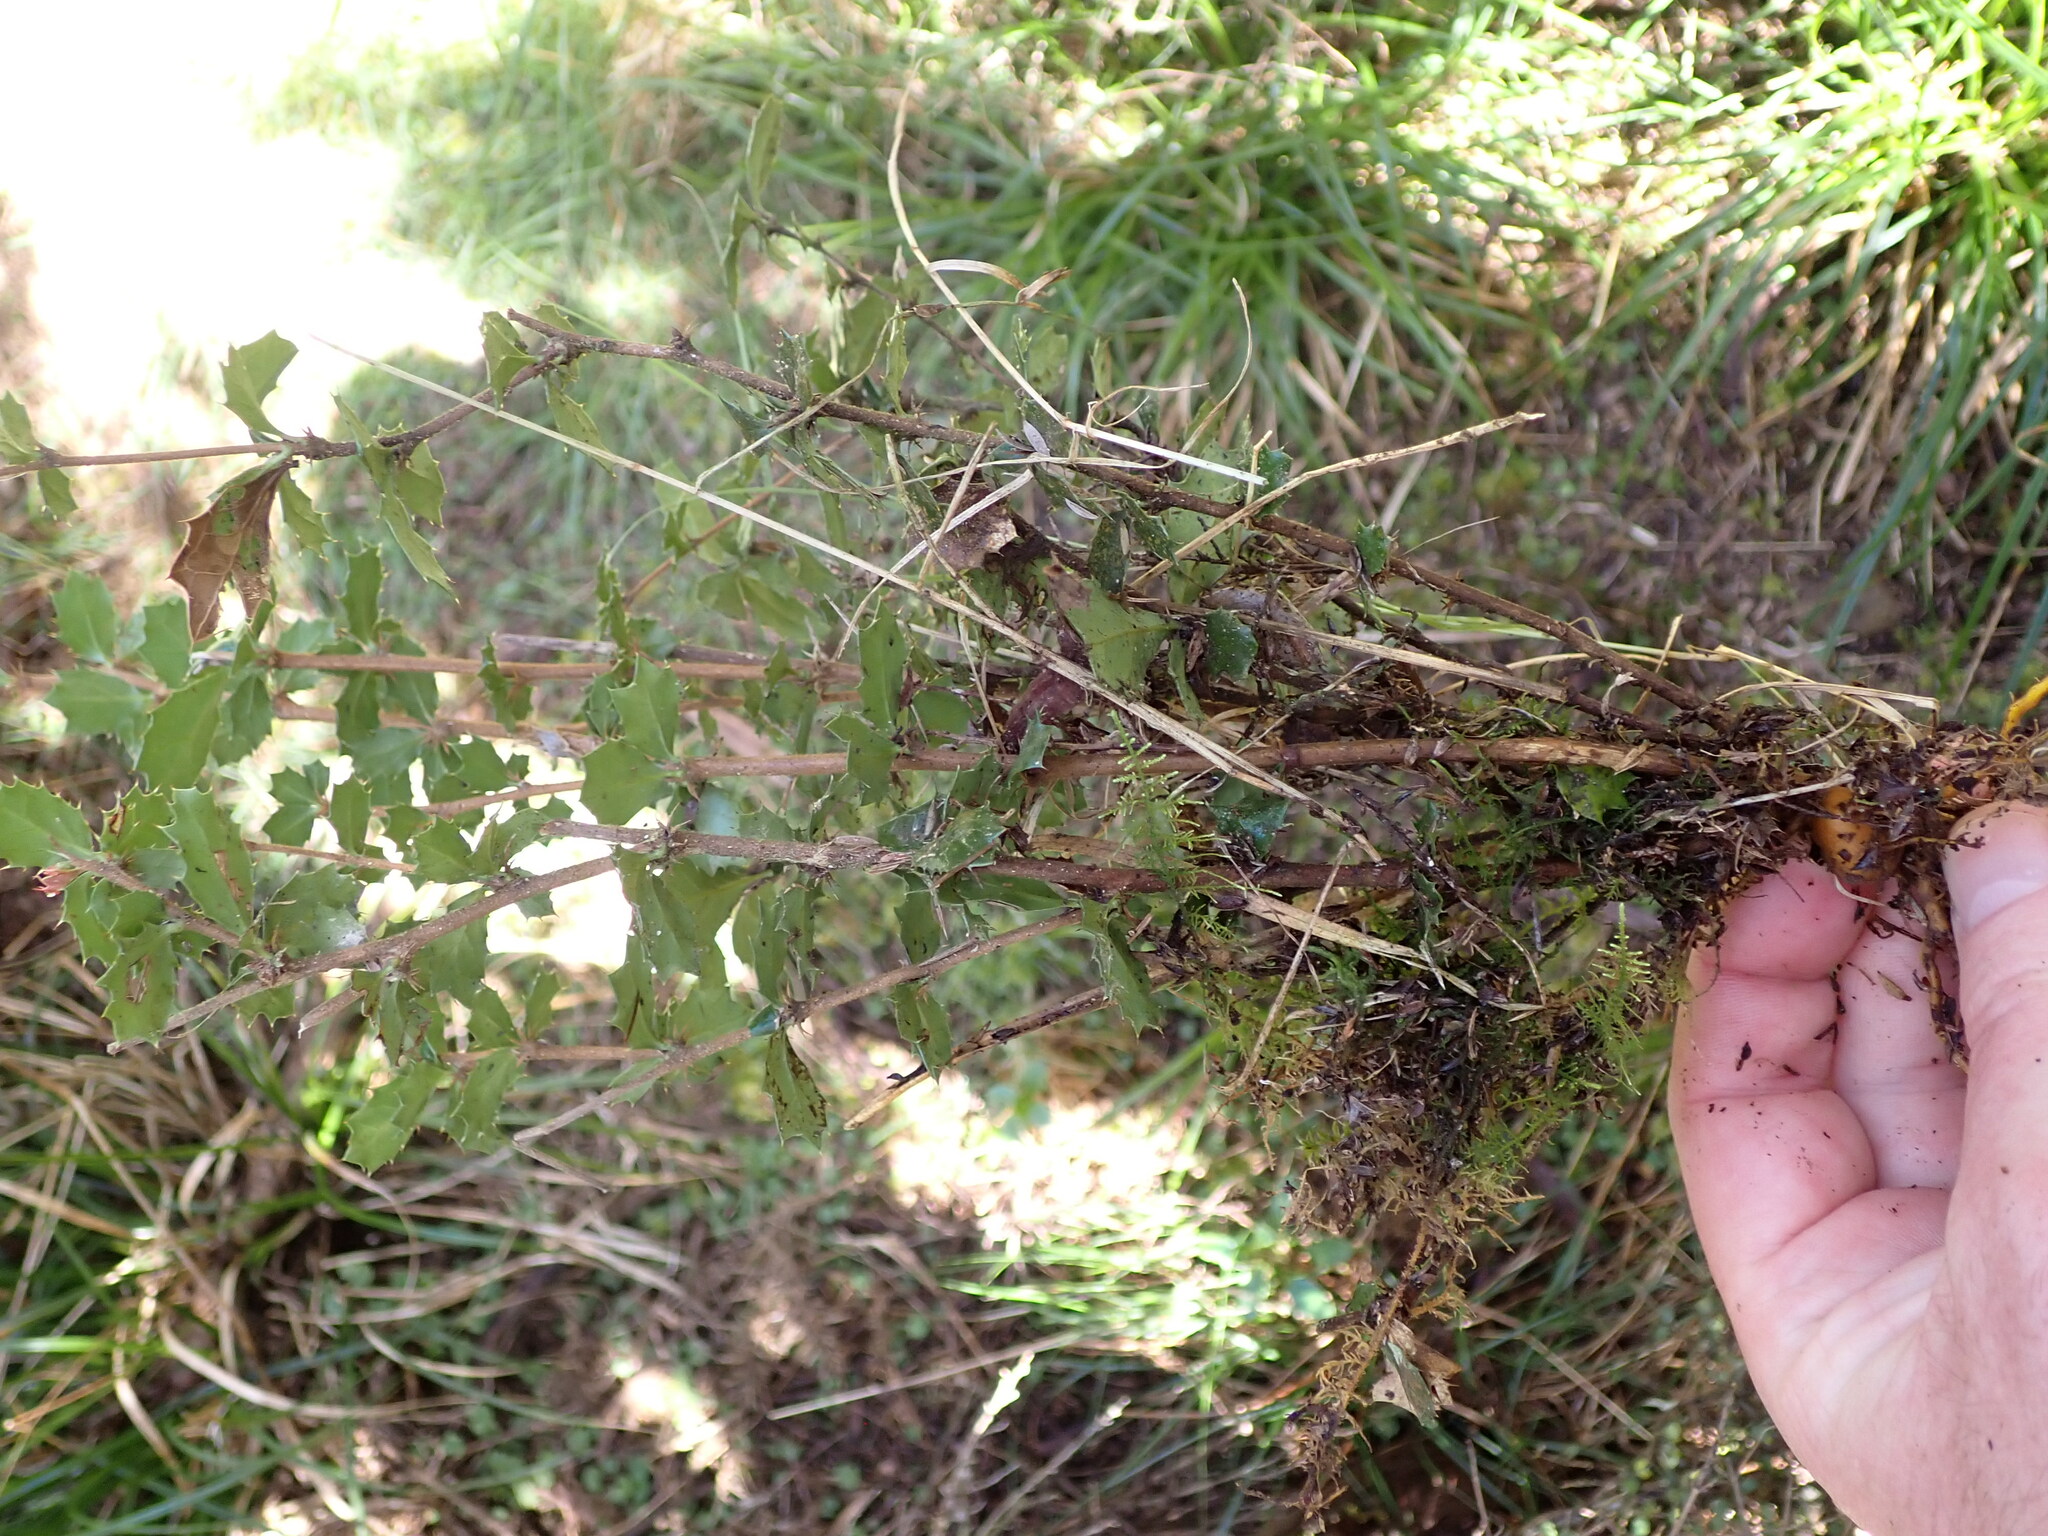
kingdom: Plantae
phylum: Tracheophyta
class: Magnoliopsida
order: Ranunculales
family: Berberidaceae
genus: Berberis
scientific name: Berberis darwinii
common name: Darwin's barberry
